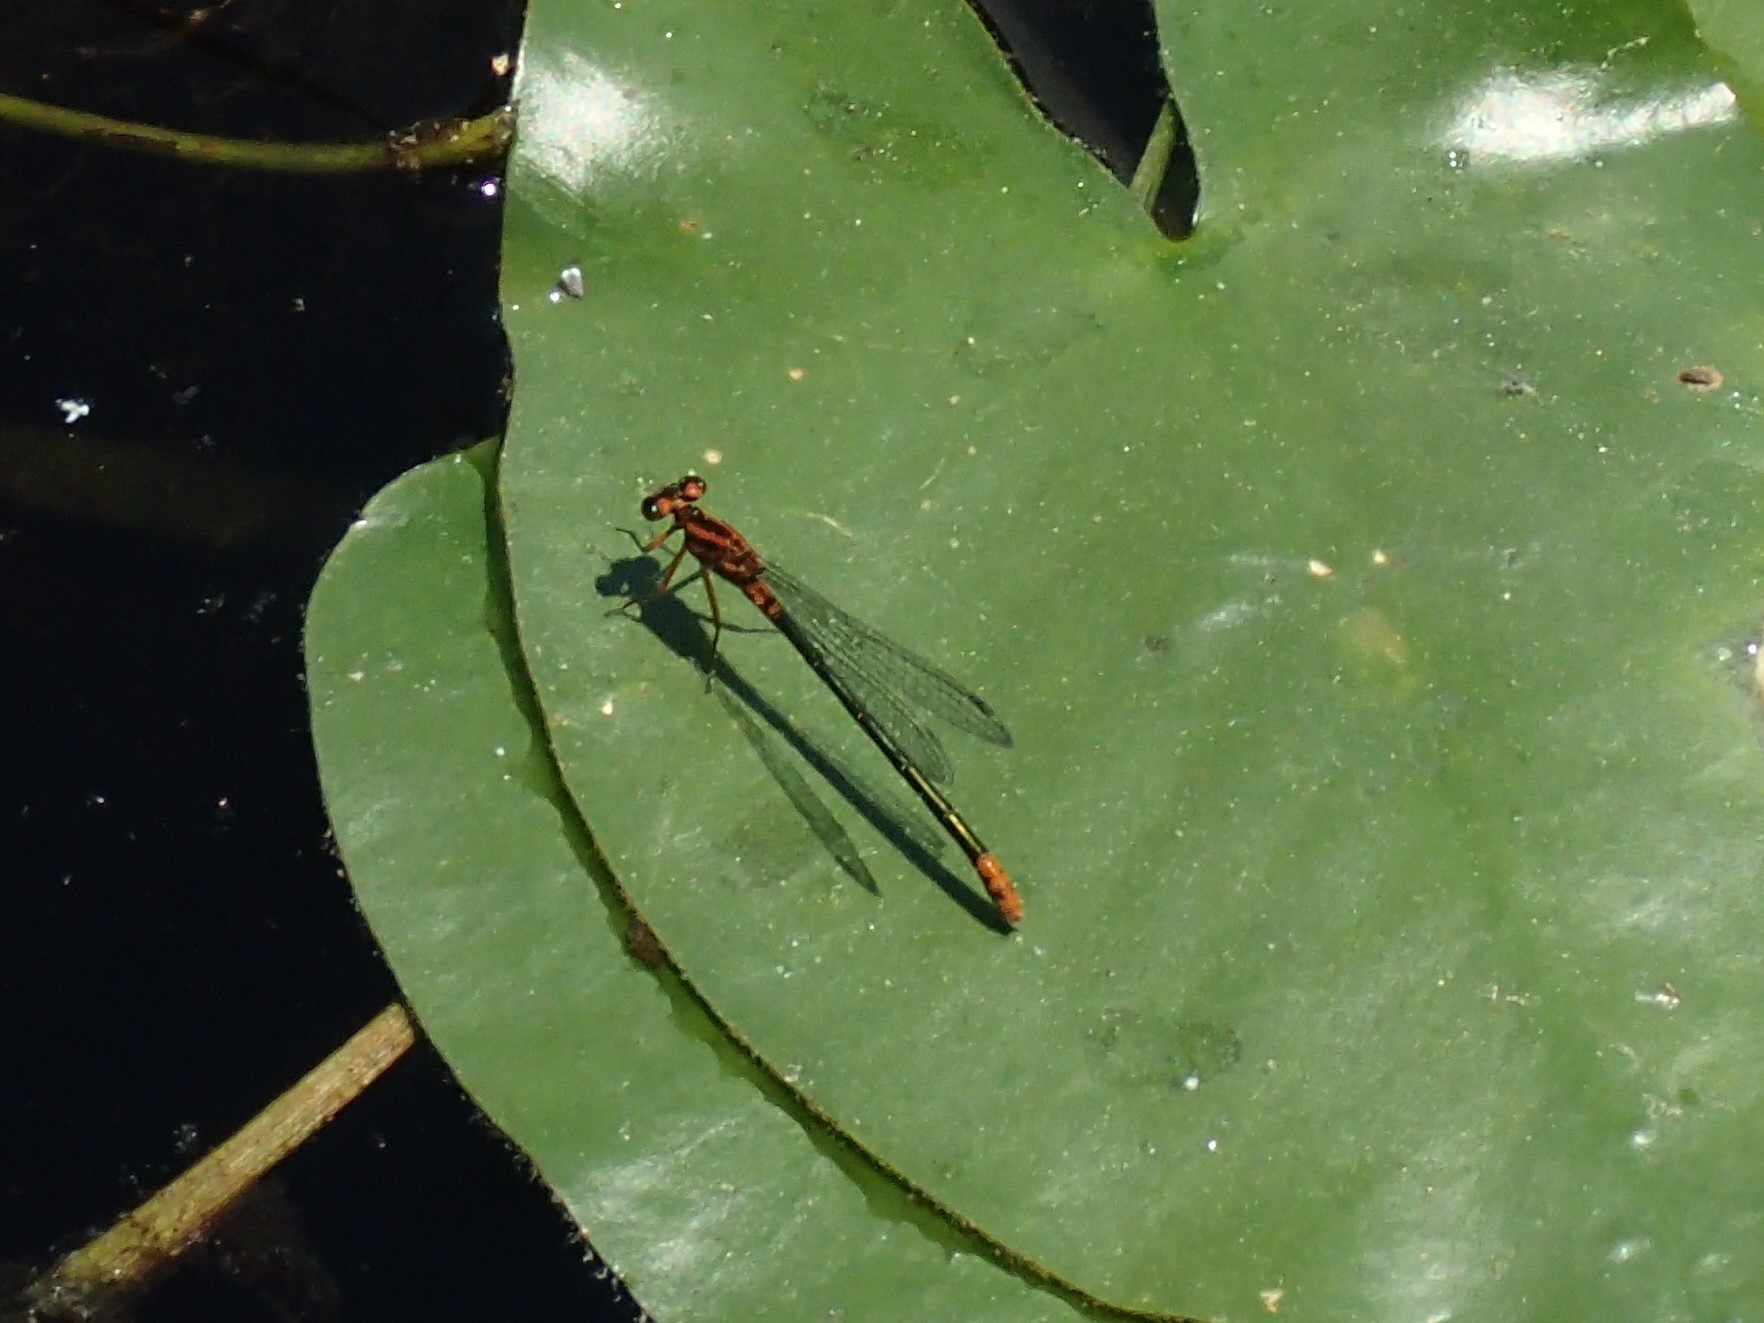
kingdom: Animalia
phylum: Arthropoda
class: Insecta
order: Odonata
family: Coenagrionidae
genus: Ischnura
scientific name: Ischnura kellicotti
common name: Lilypad forktail
